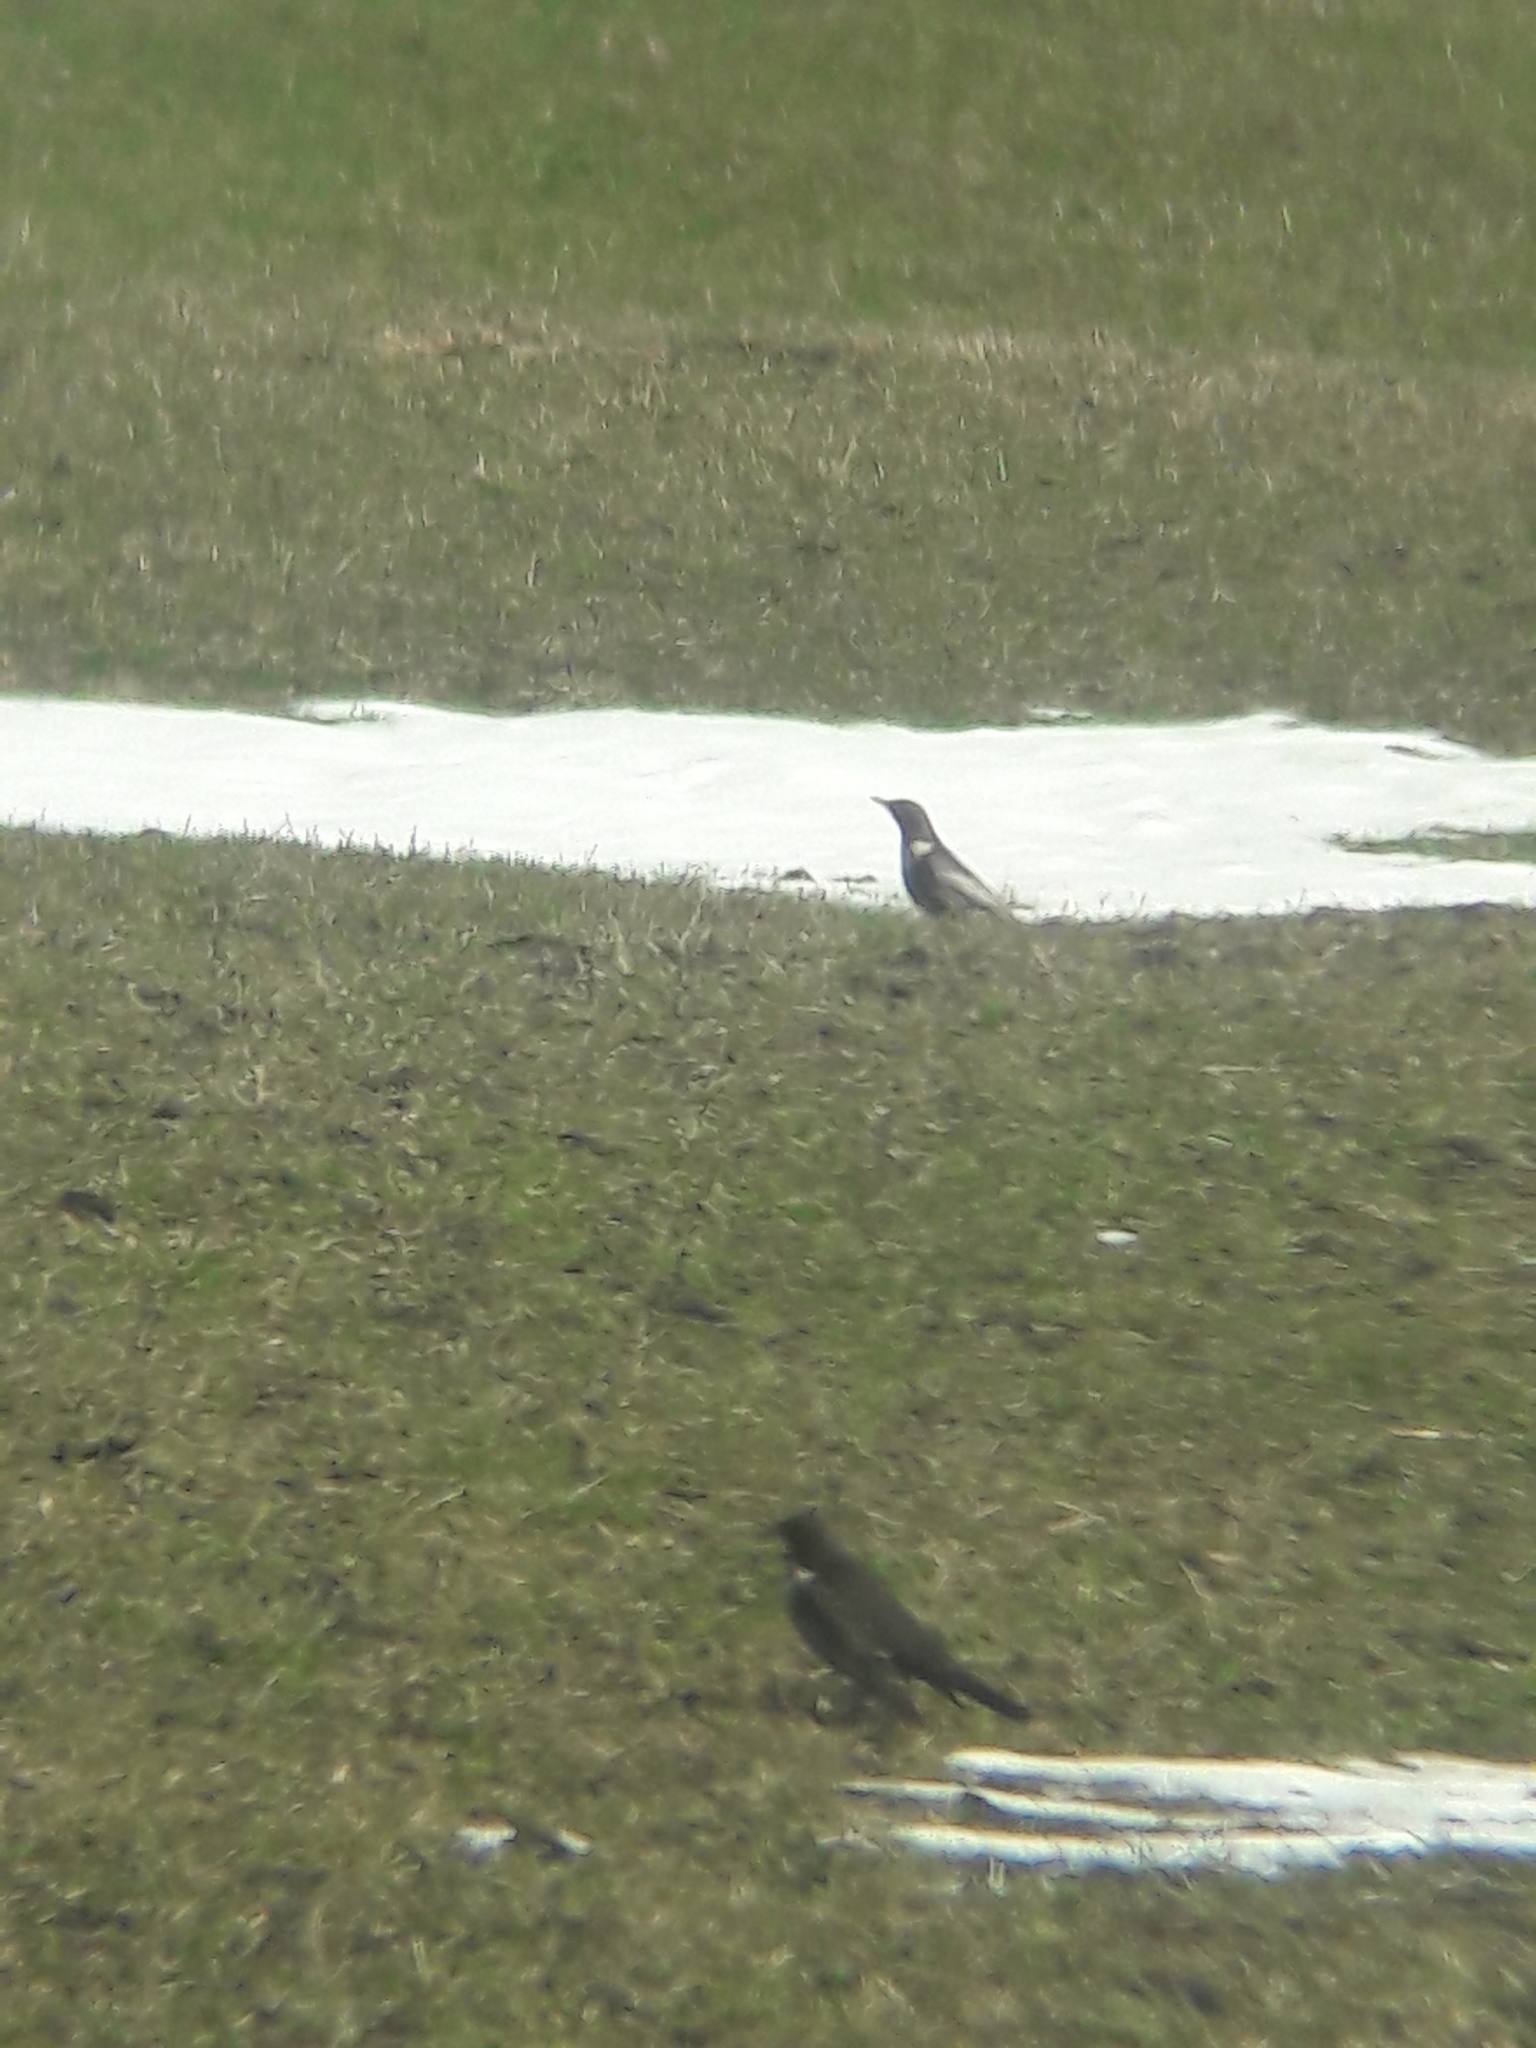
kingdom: Animalia
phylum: Chordata
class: Aves
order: Passeriformes
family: Turdidae
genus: Turdus
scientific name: Turdus torquatus
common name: Ring ouzel
